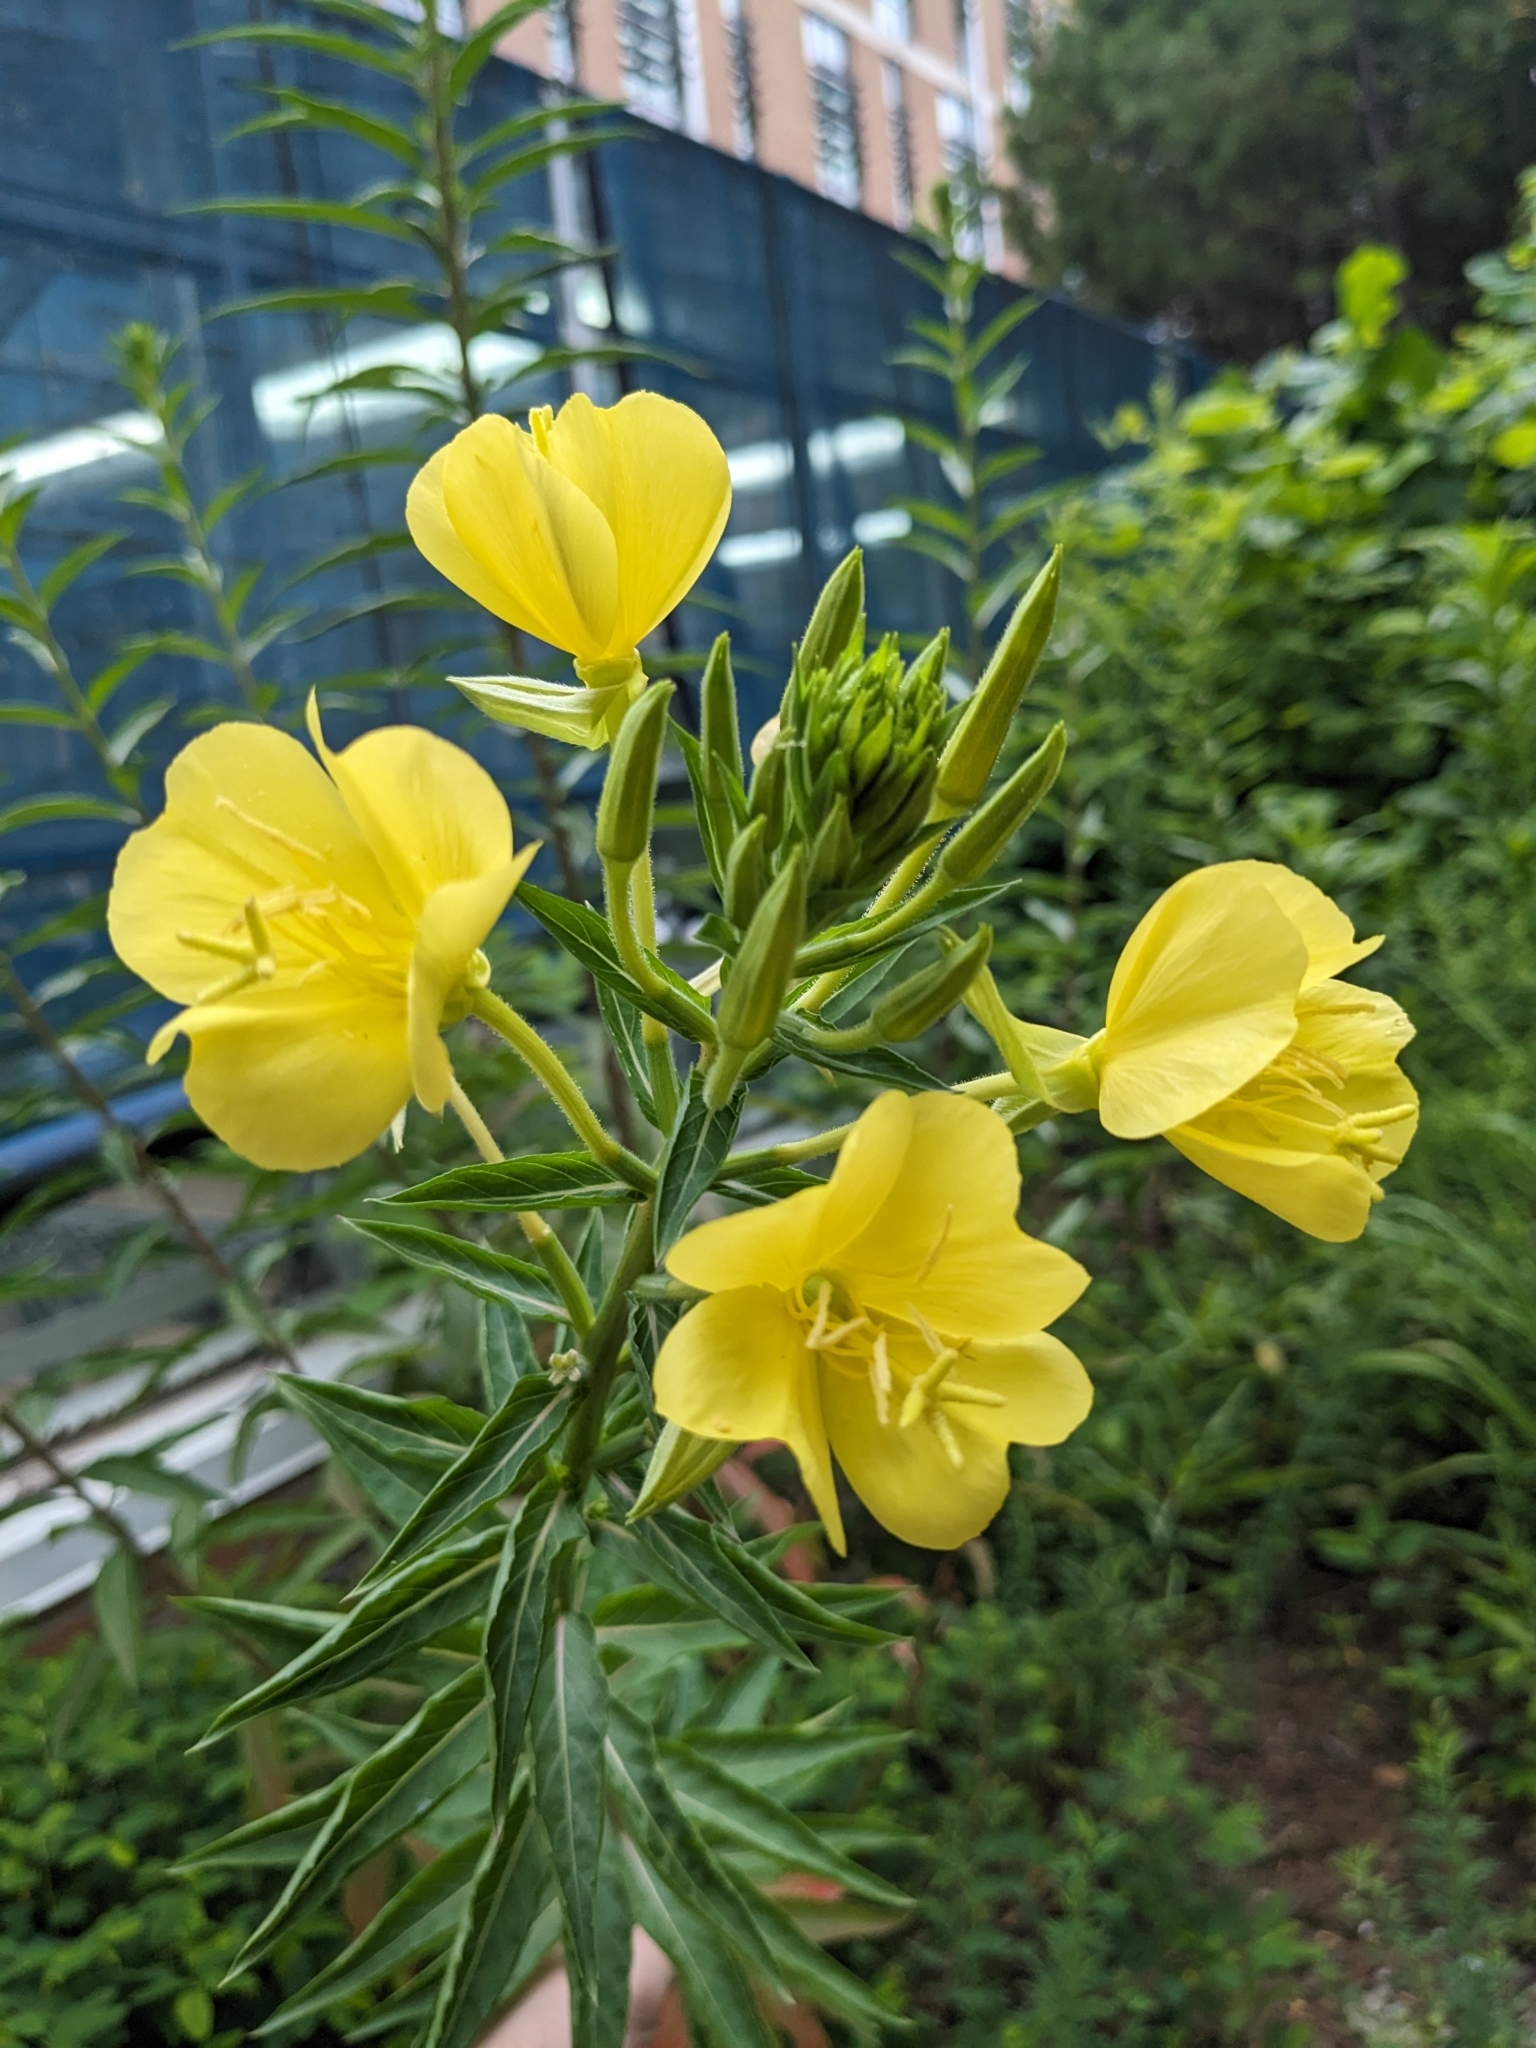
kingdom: Plantae
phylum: Tracheophyta
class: Magnoliopsida
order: Myrtales
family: Onagraceae
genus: Oenothera
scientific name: Oenothera biennis
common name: Common evening-primrose
